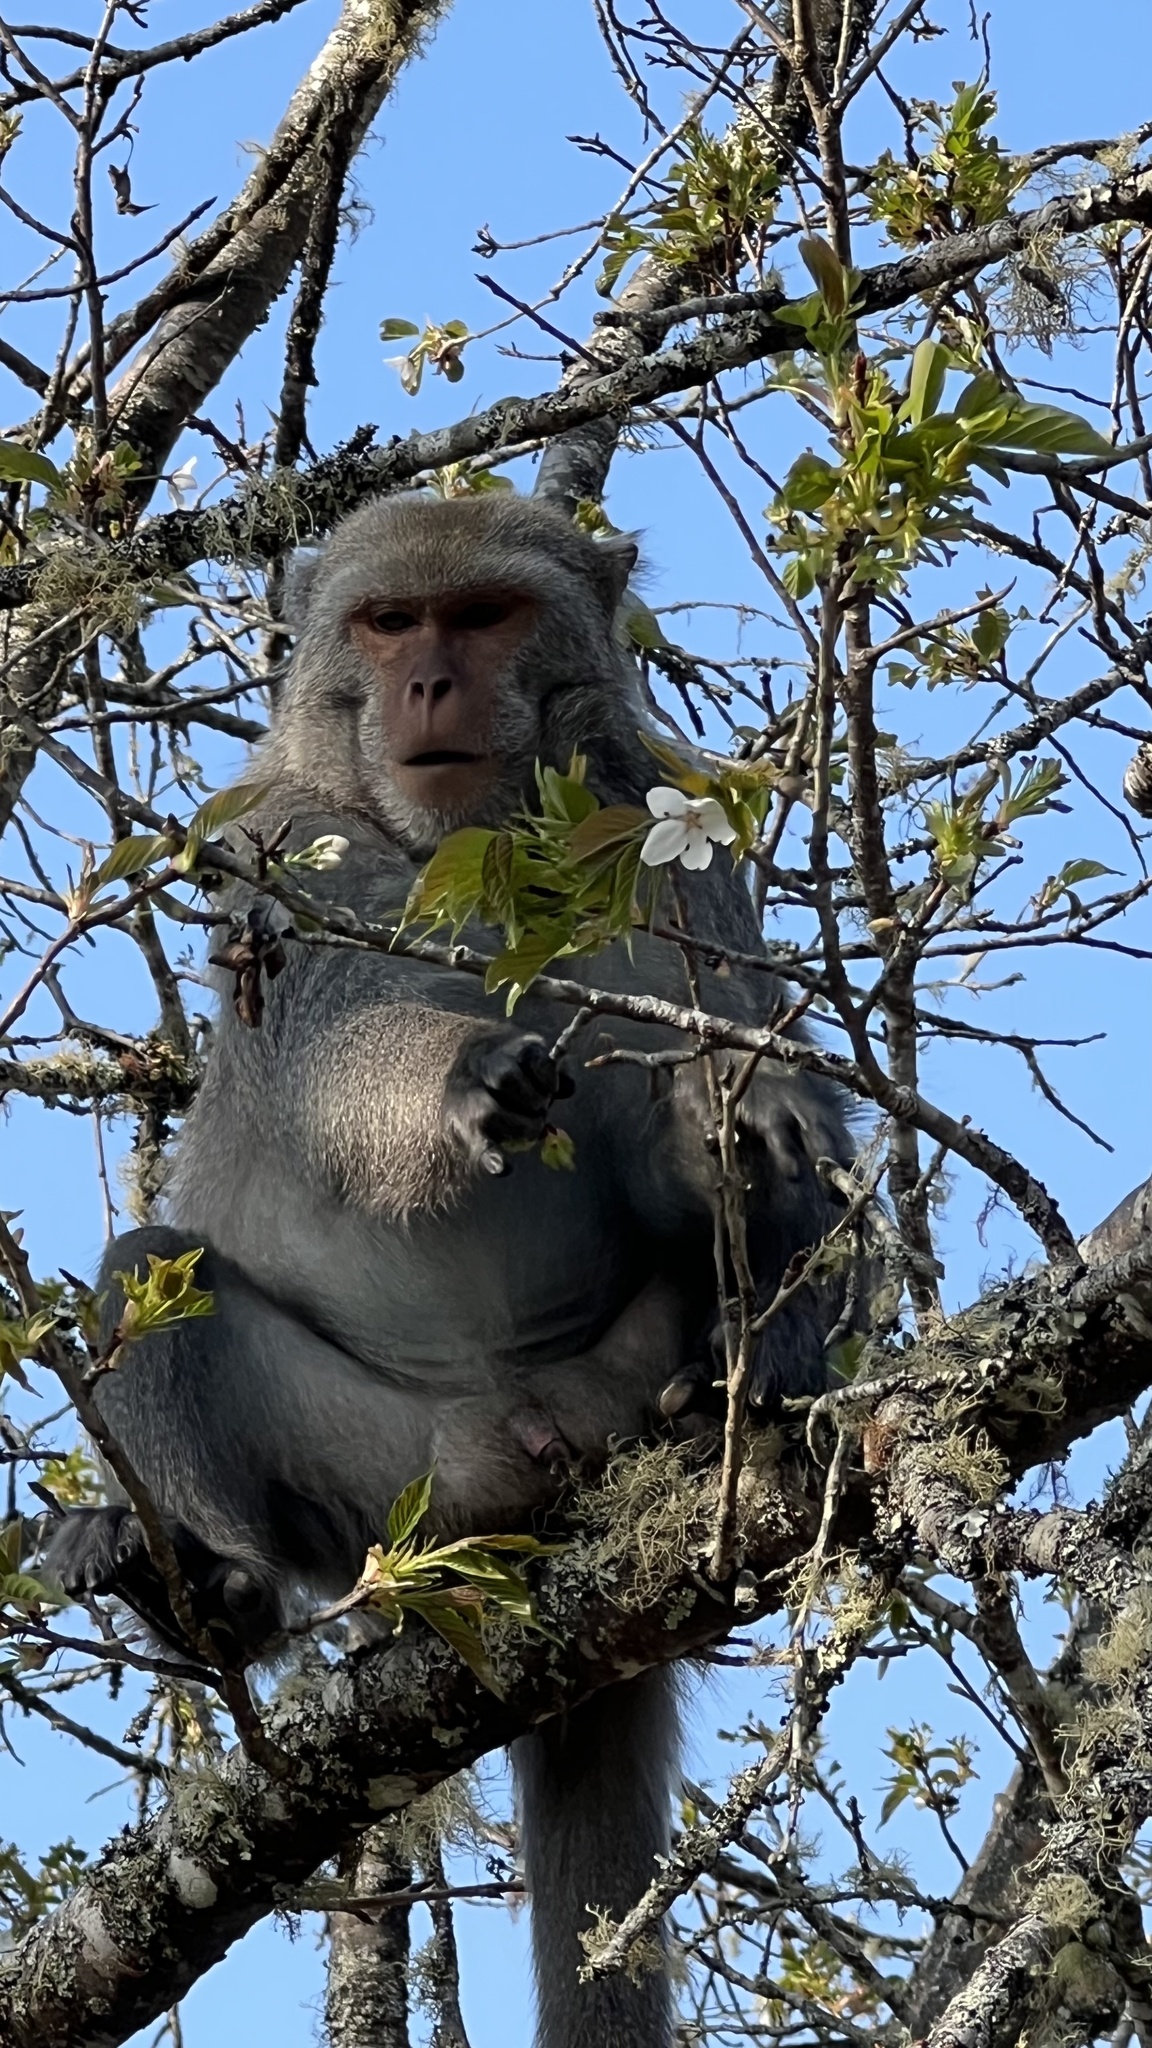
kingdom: Animalia
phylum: Chordata
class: Mammalia
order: Primates
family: Cercopithecidae
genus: Macaca
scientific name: Macaca cyclopis
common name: Formosan rock macaque
